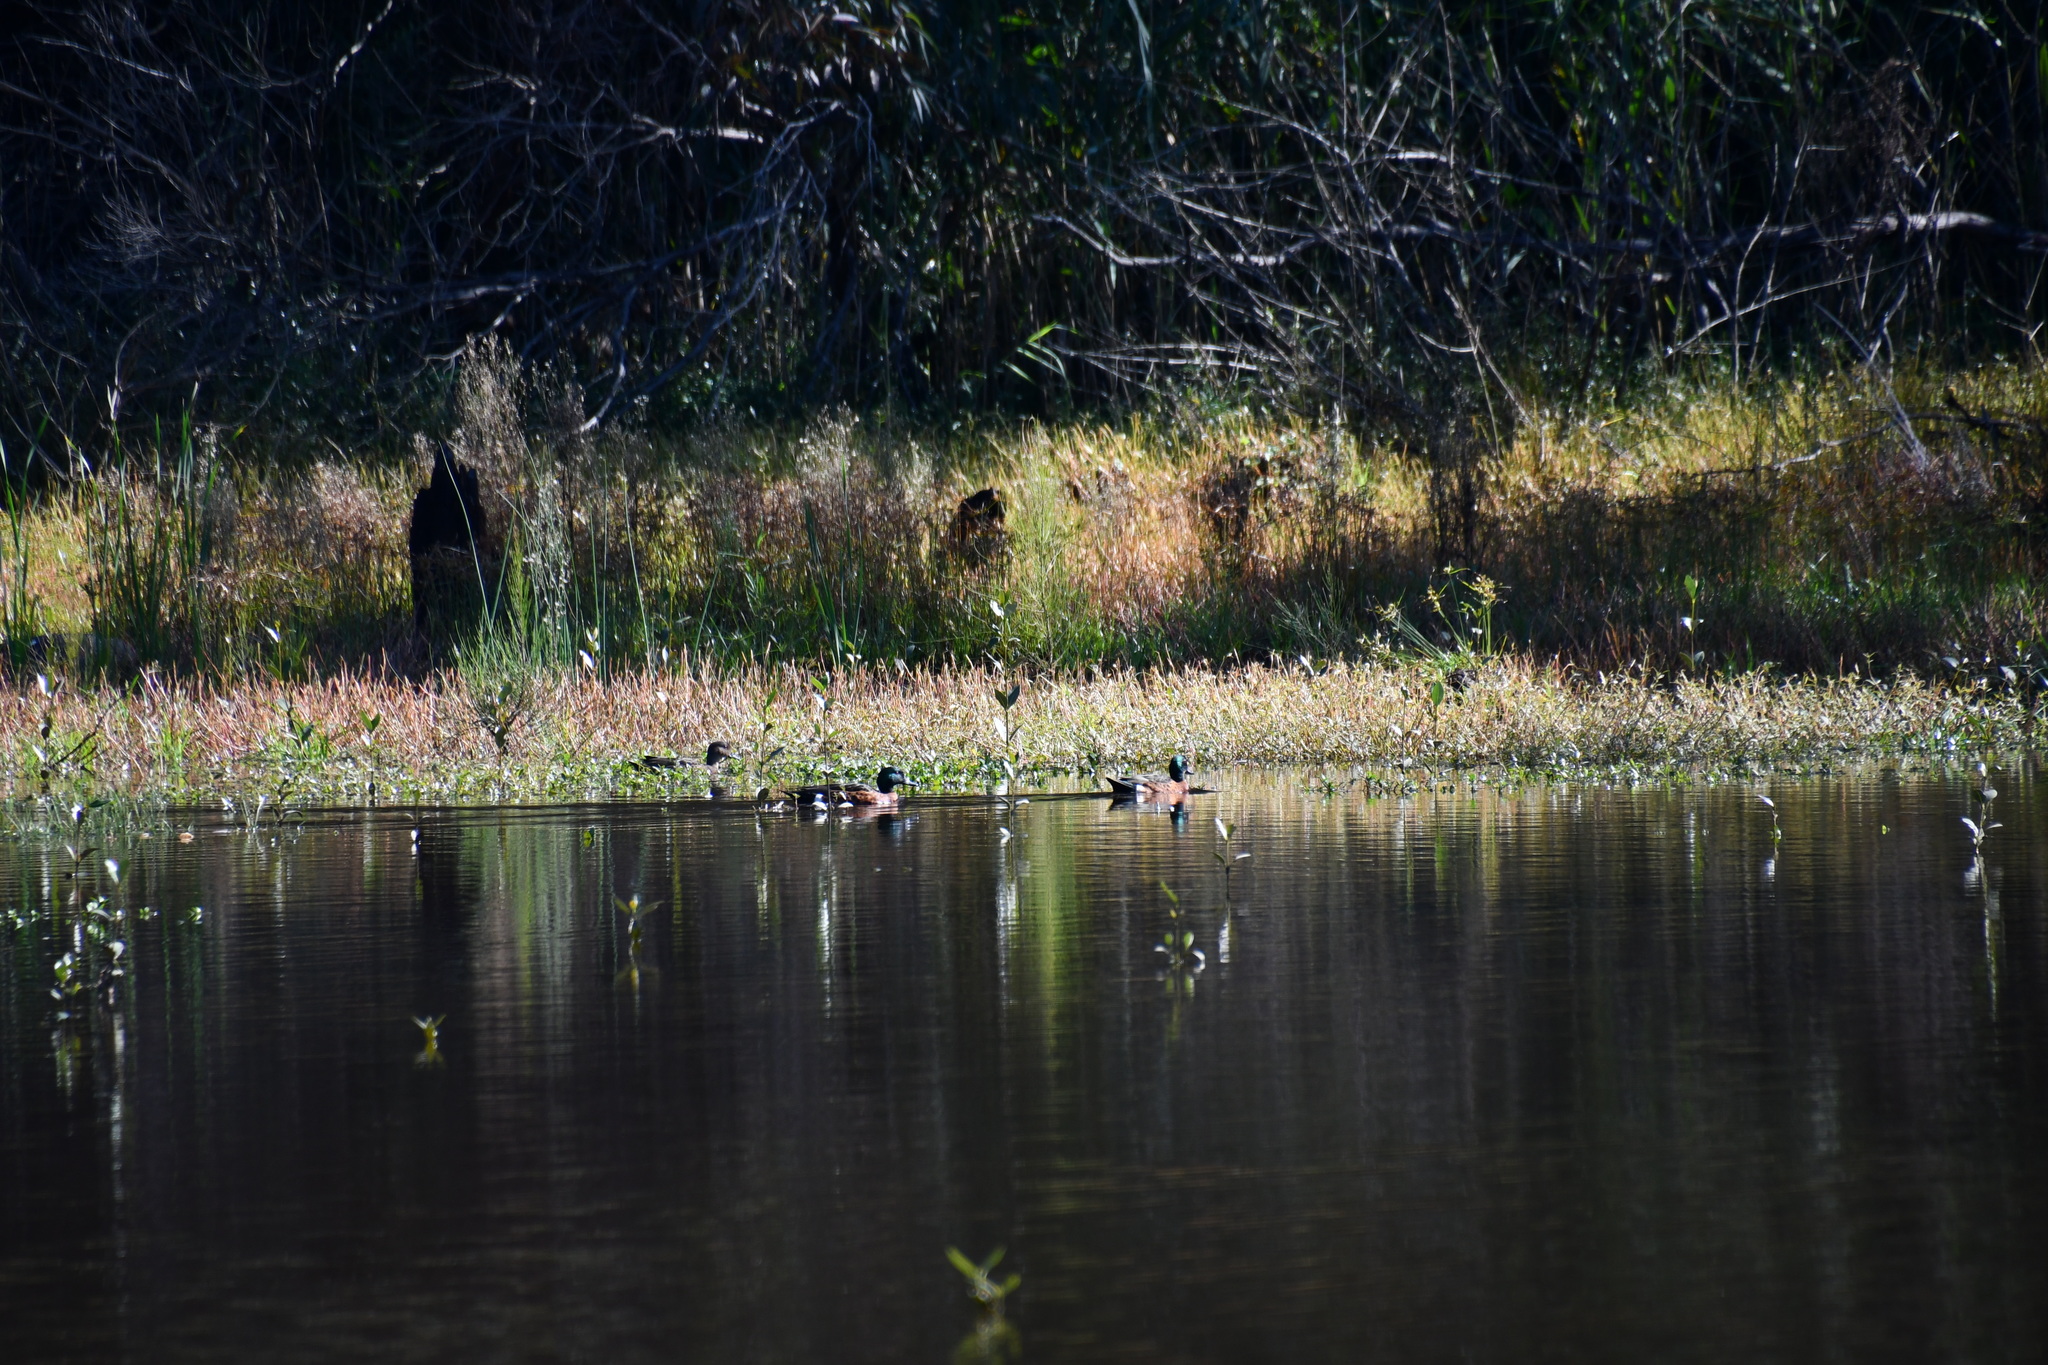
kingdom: Animalia
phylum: Chordata
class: Aves
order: Anseriformes
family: Anatidae
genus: Anas
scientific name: Anas castanea
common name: Chestnut teal
